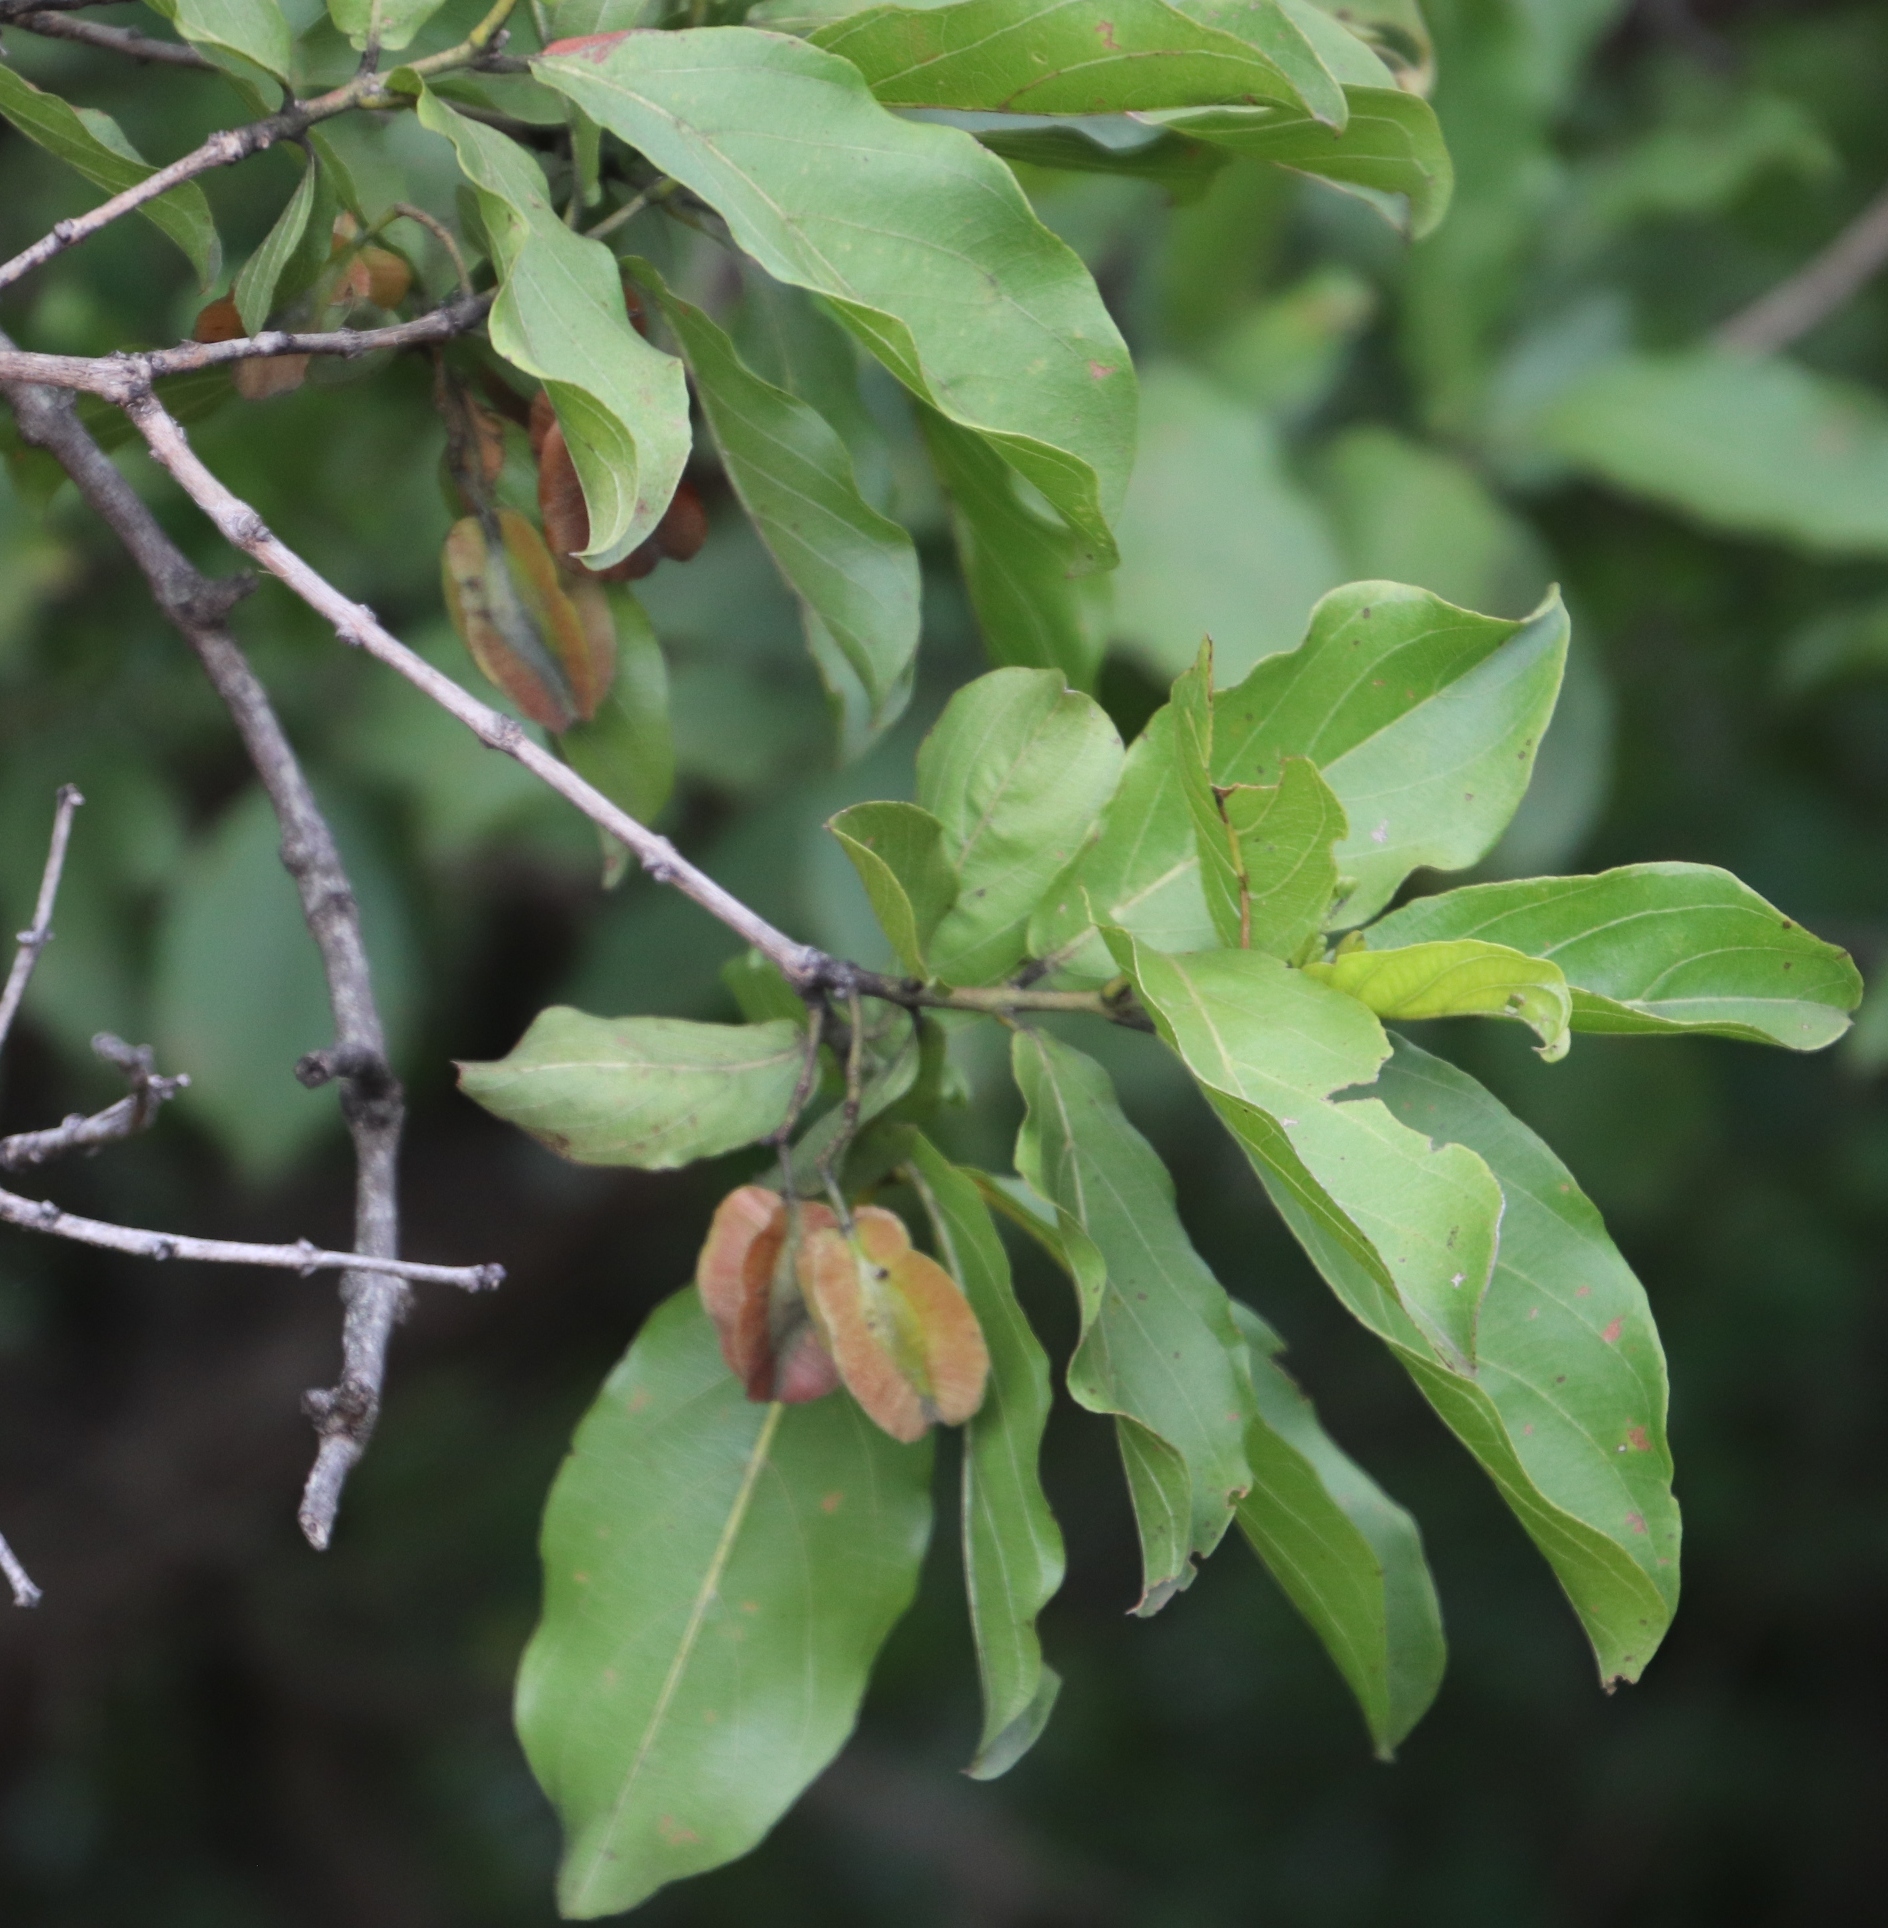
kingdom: Plantae
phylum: Tracheophyta
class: Magnoliopsida
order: Myrtales
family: Combretaceae
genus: Combretum
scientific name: Combretum apiculatum
